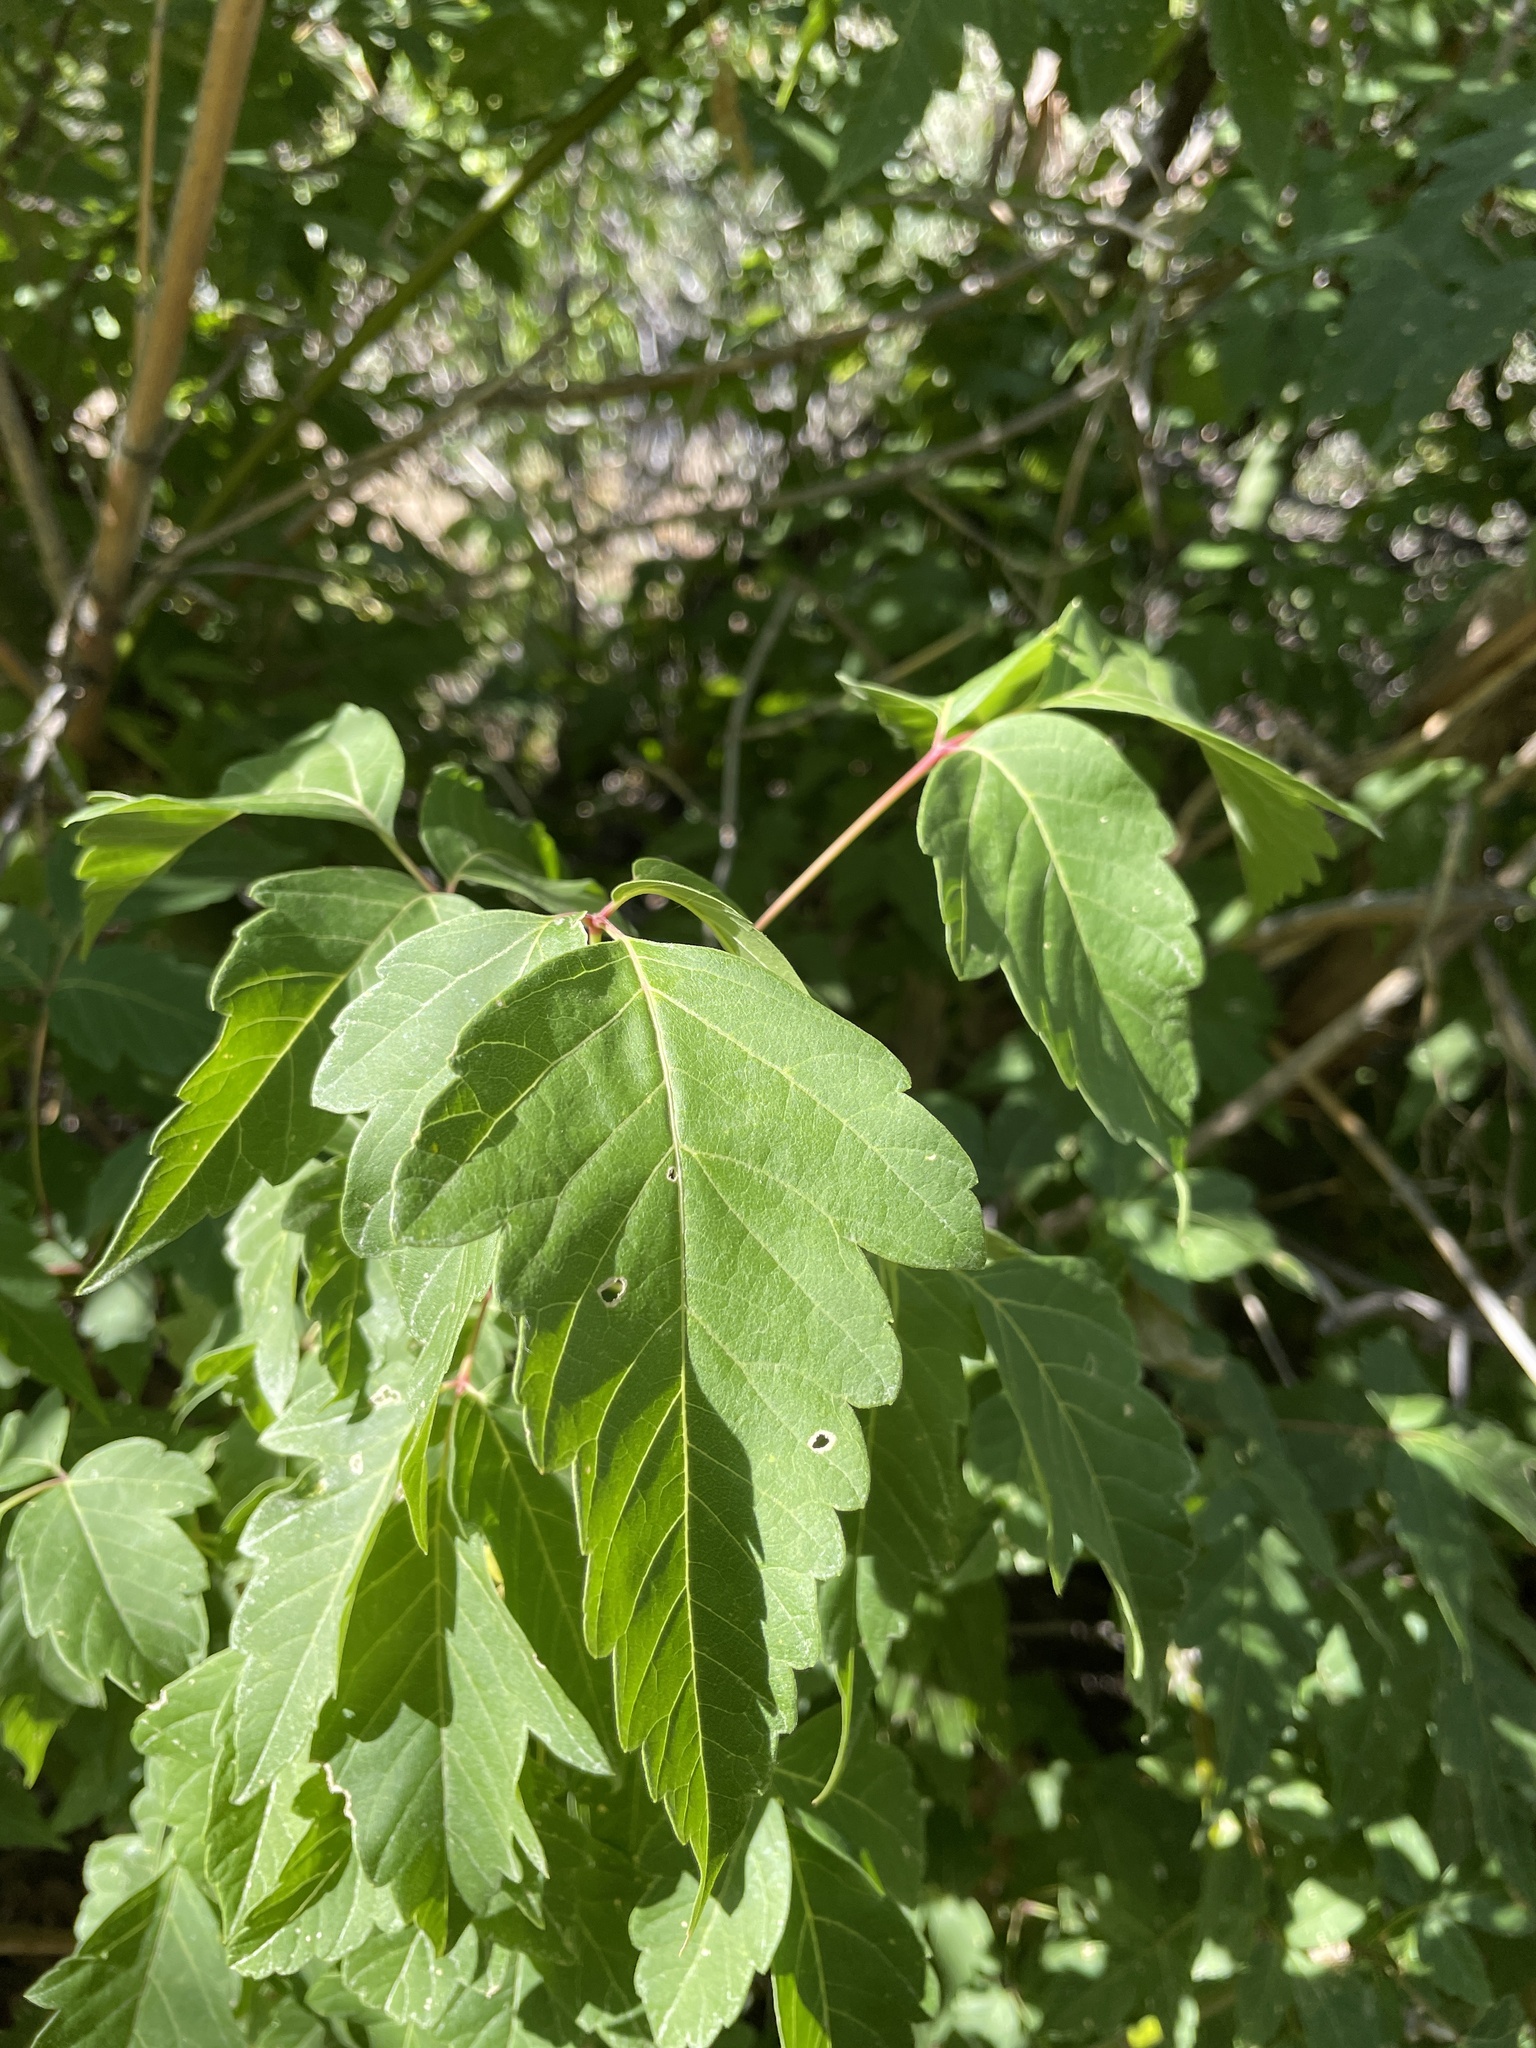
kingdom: Plantae
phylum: Tracheophyta
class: Magnoliopsida
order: Sapindales
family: Sapindaceae
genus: Acer
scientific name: Acer negundo
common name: Ashleaf maple
